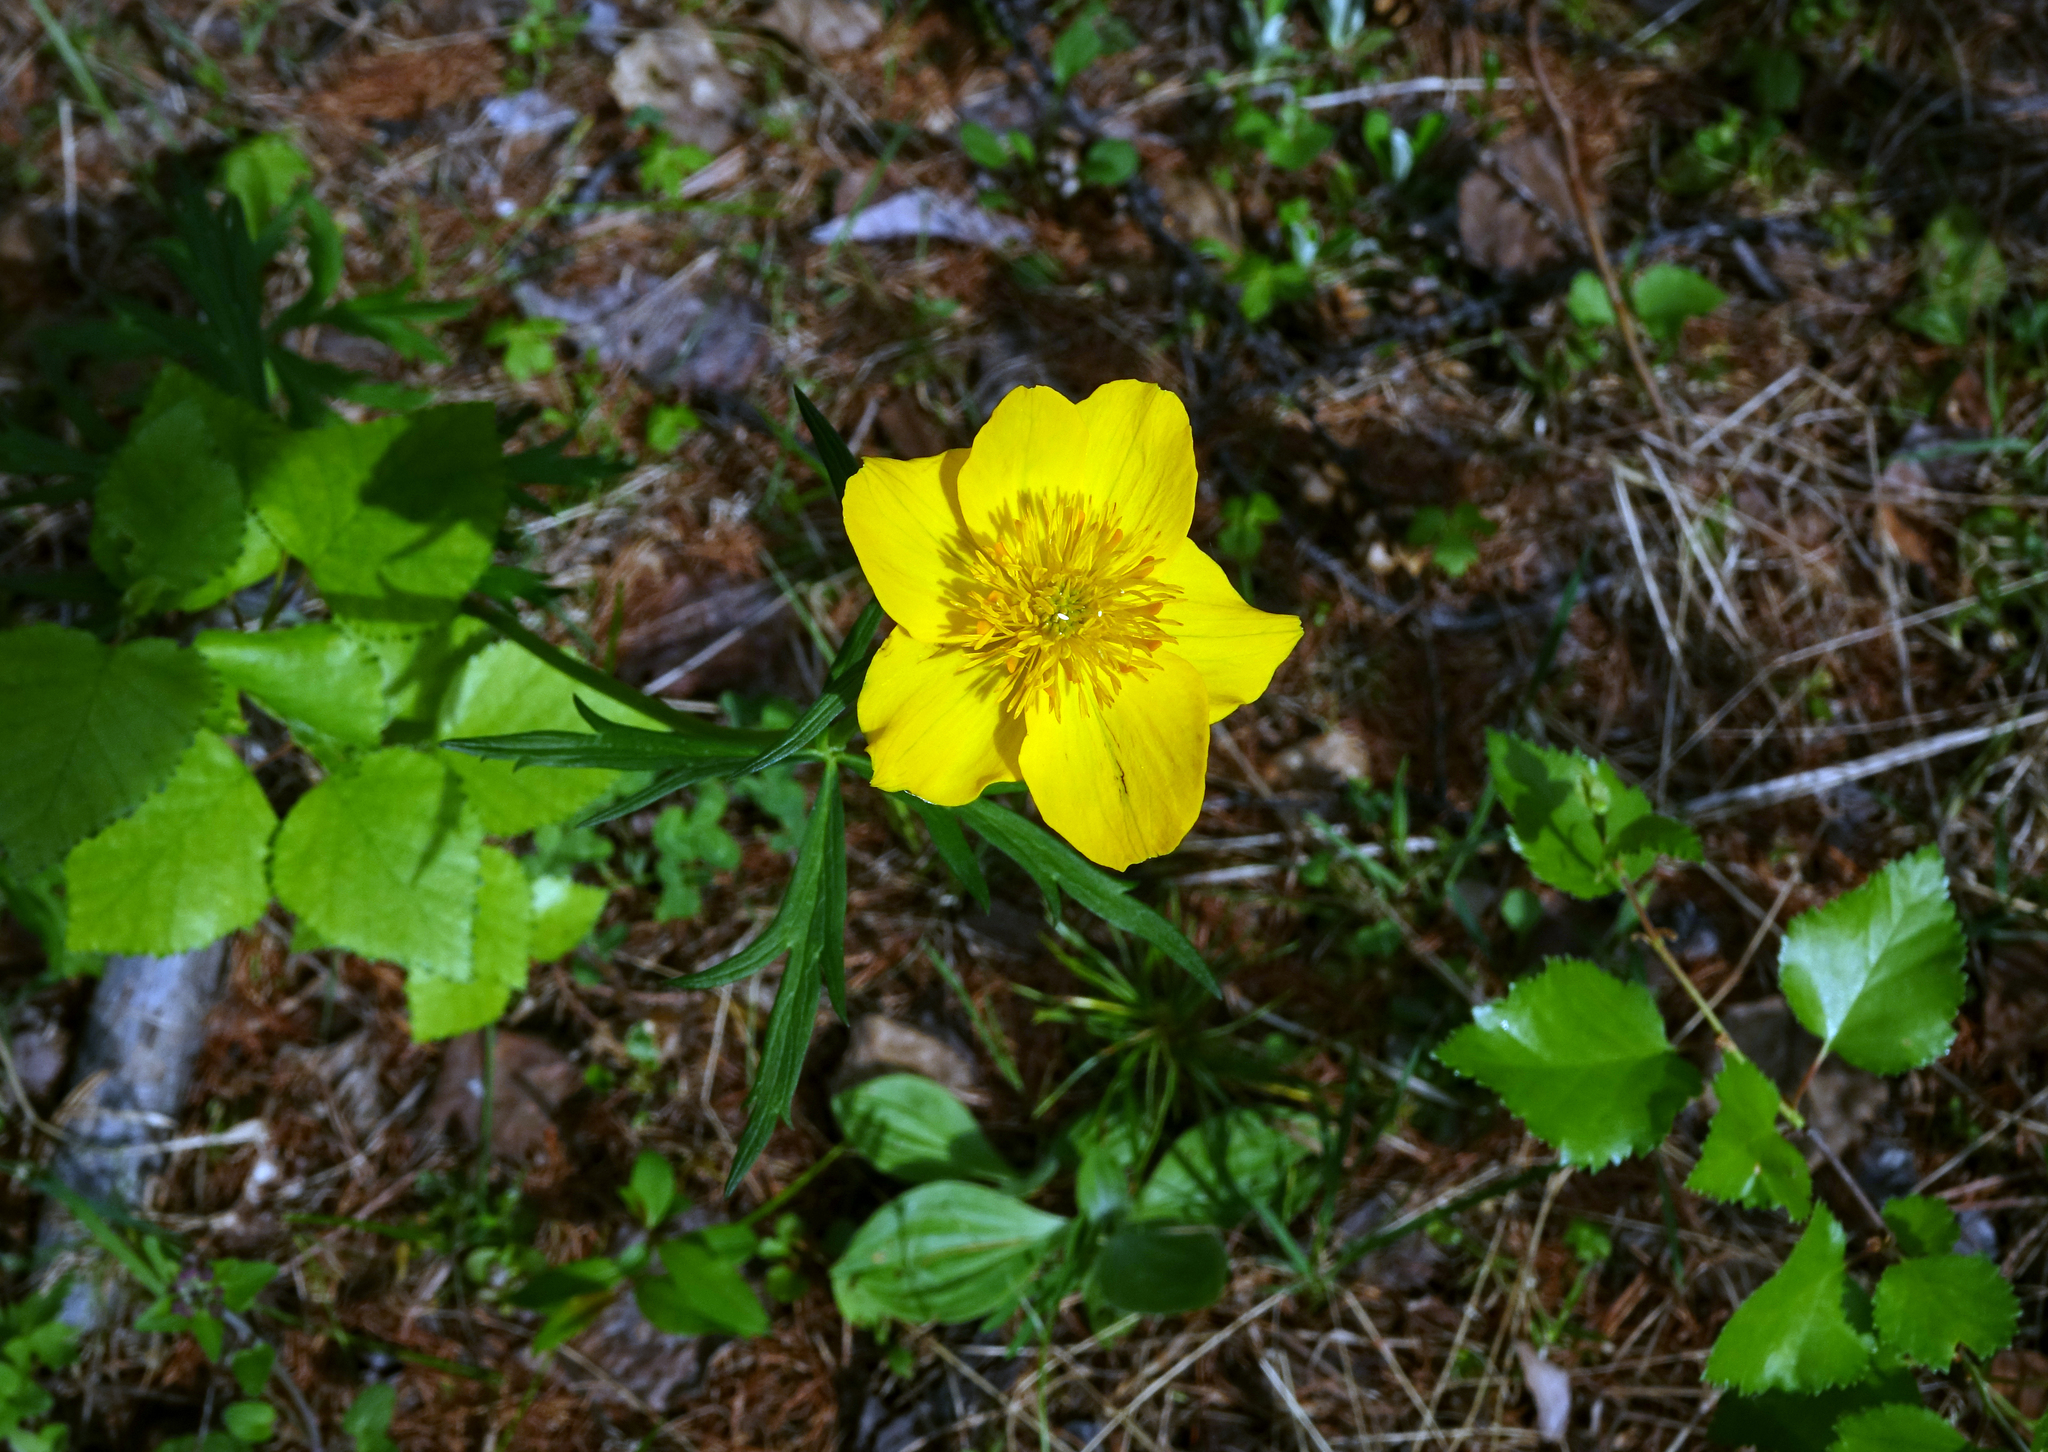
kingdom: Plantae
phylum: Tracheophyta
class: Magnoliopsida
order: Ranunculales
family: Ranunculaceae
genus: Trollius
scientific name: Trollius membranostylis
